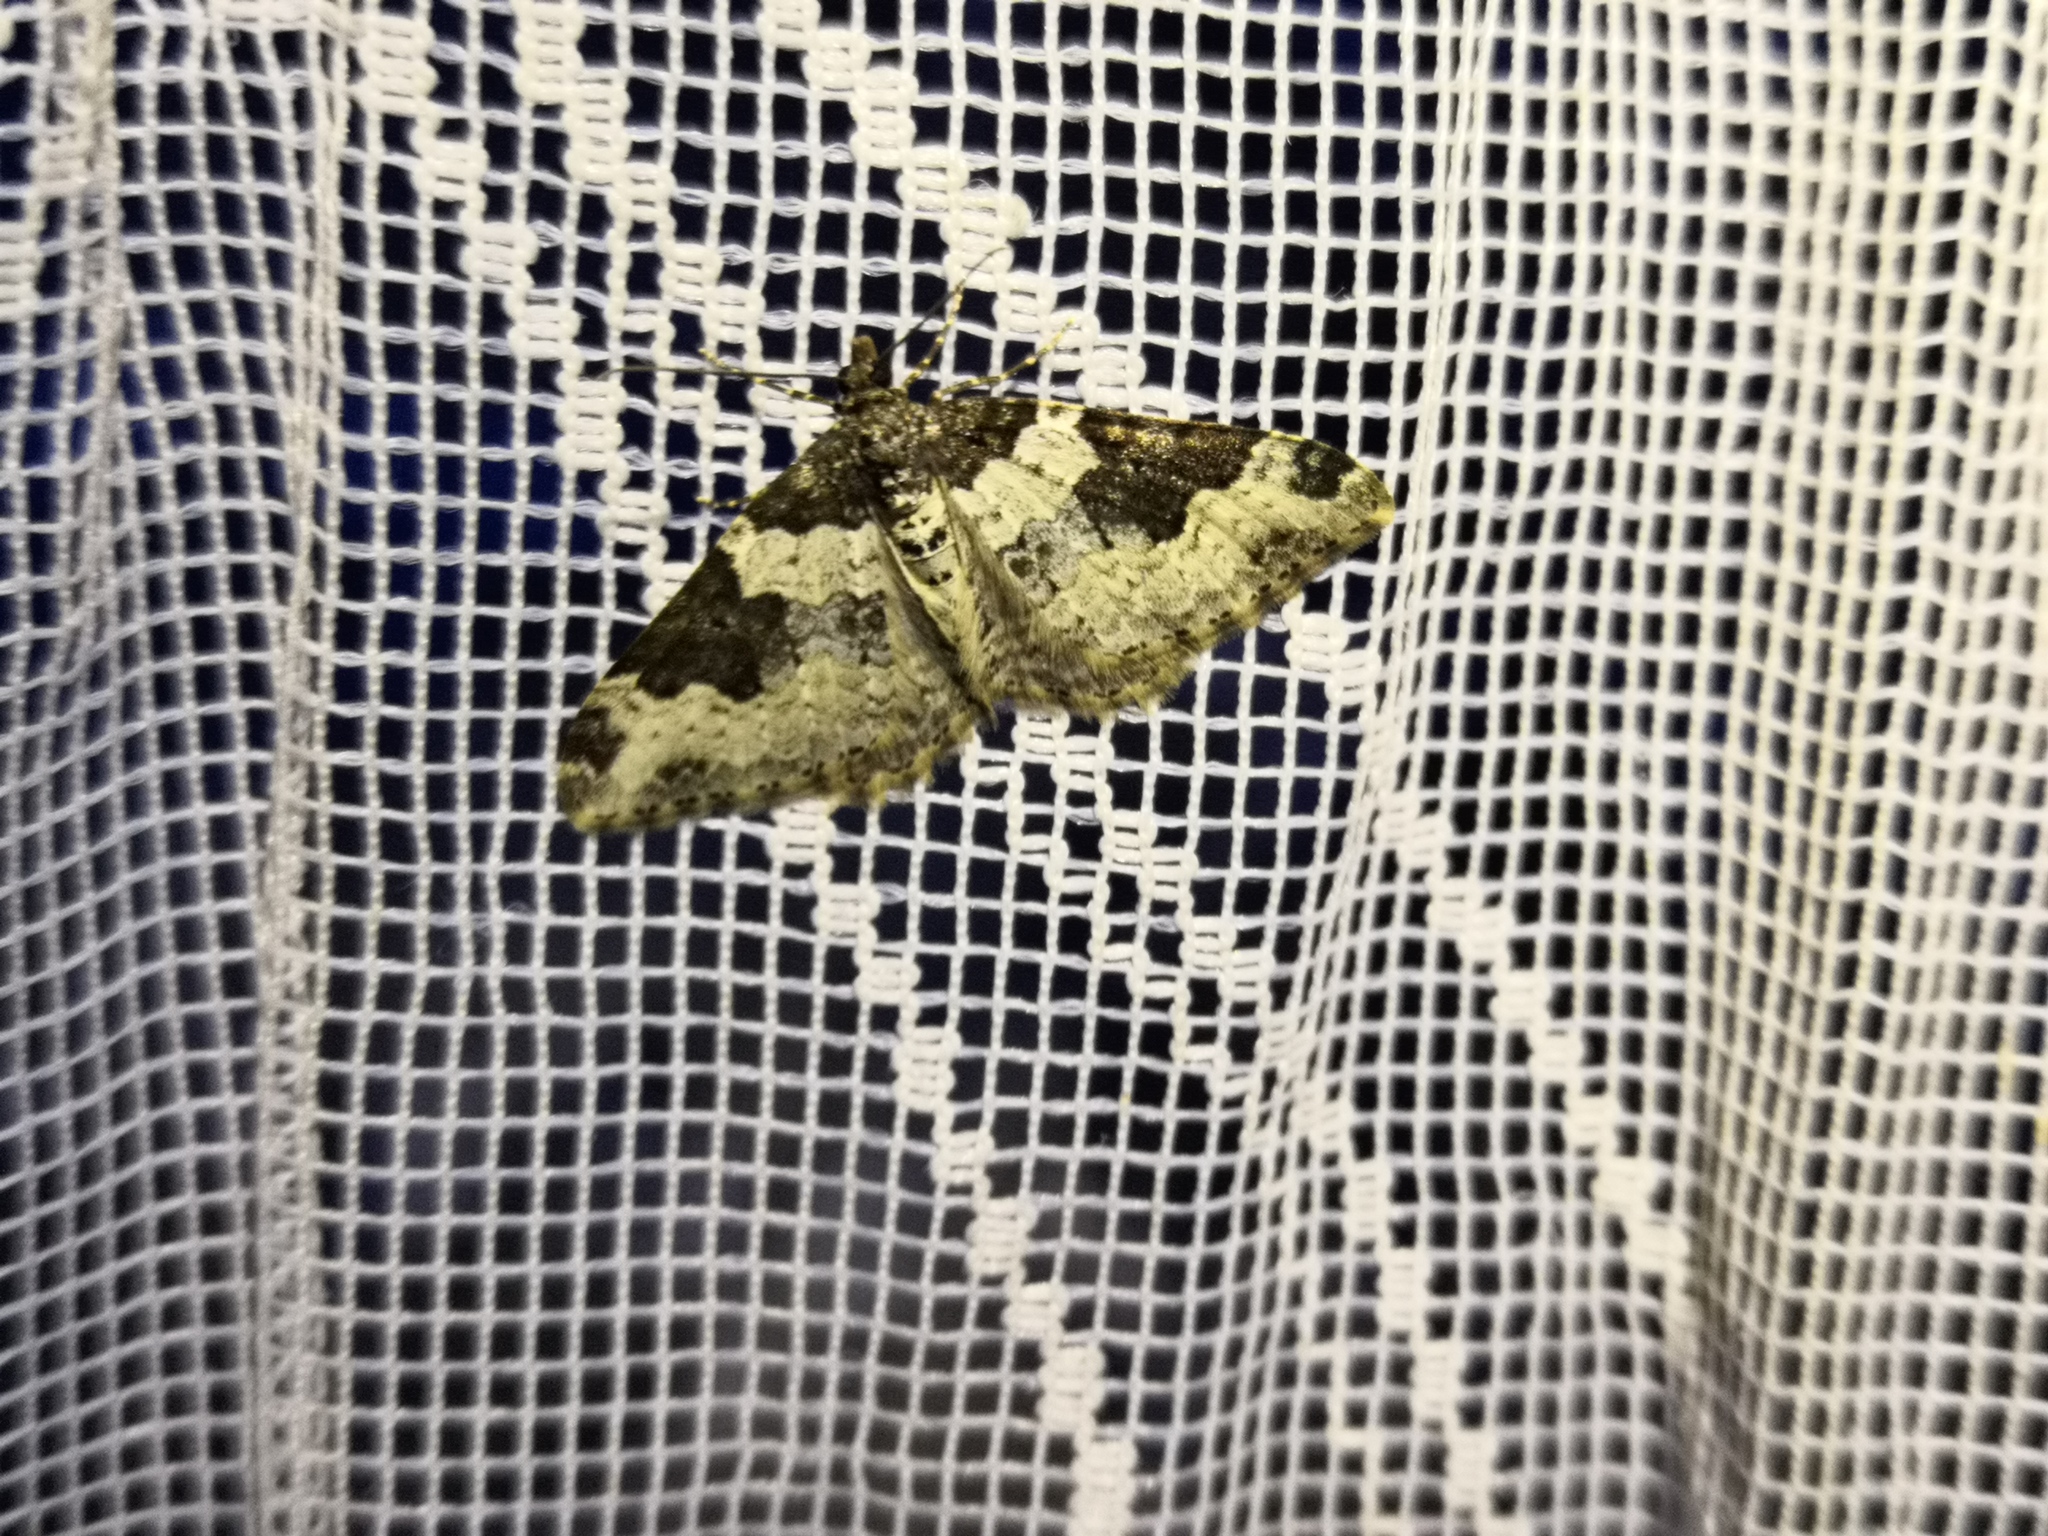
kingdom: Animalia
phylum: Arthropoda
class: Insecta
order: Lepidoptera
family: Geometridae
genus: Xanthorhoe
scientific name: Xanthorhoe fluctuata
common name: Garden carpet
